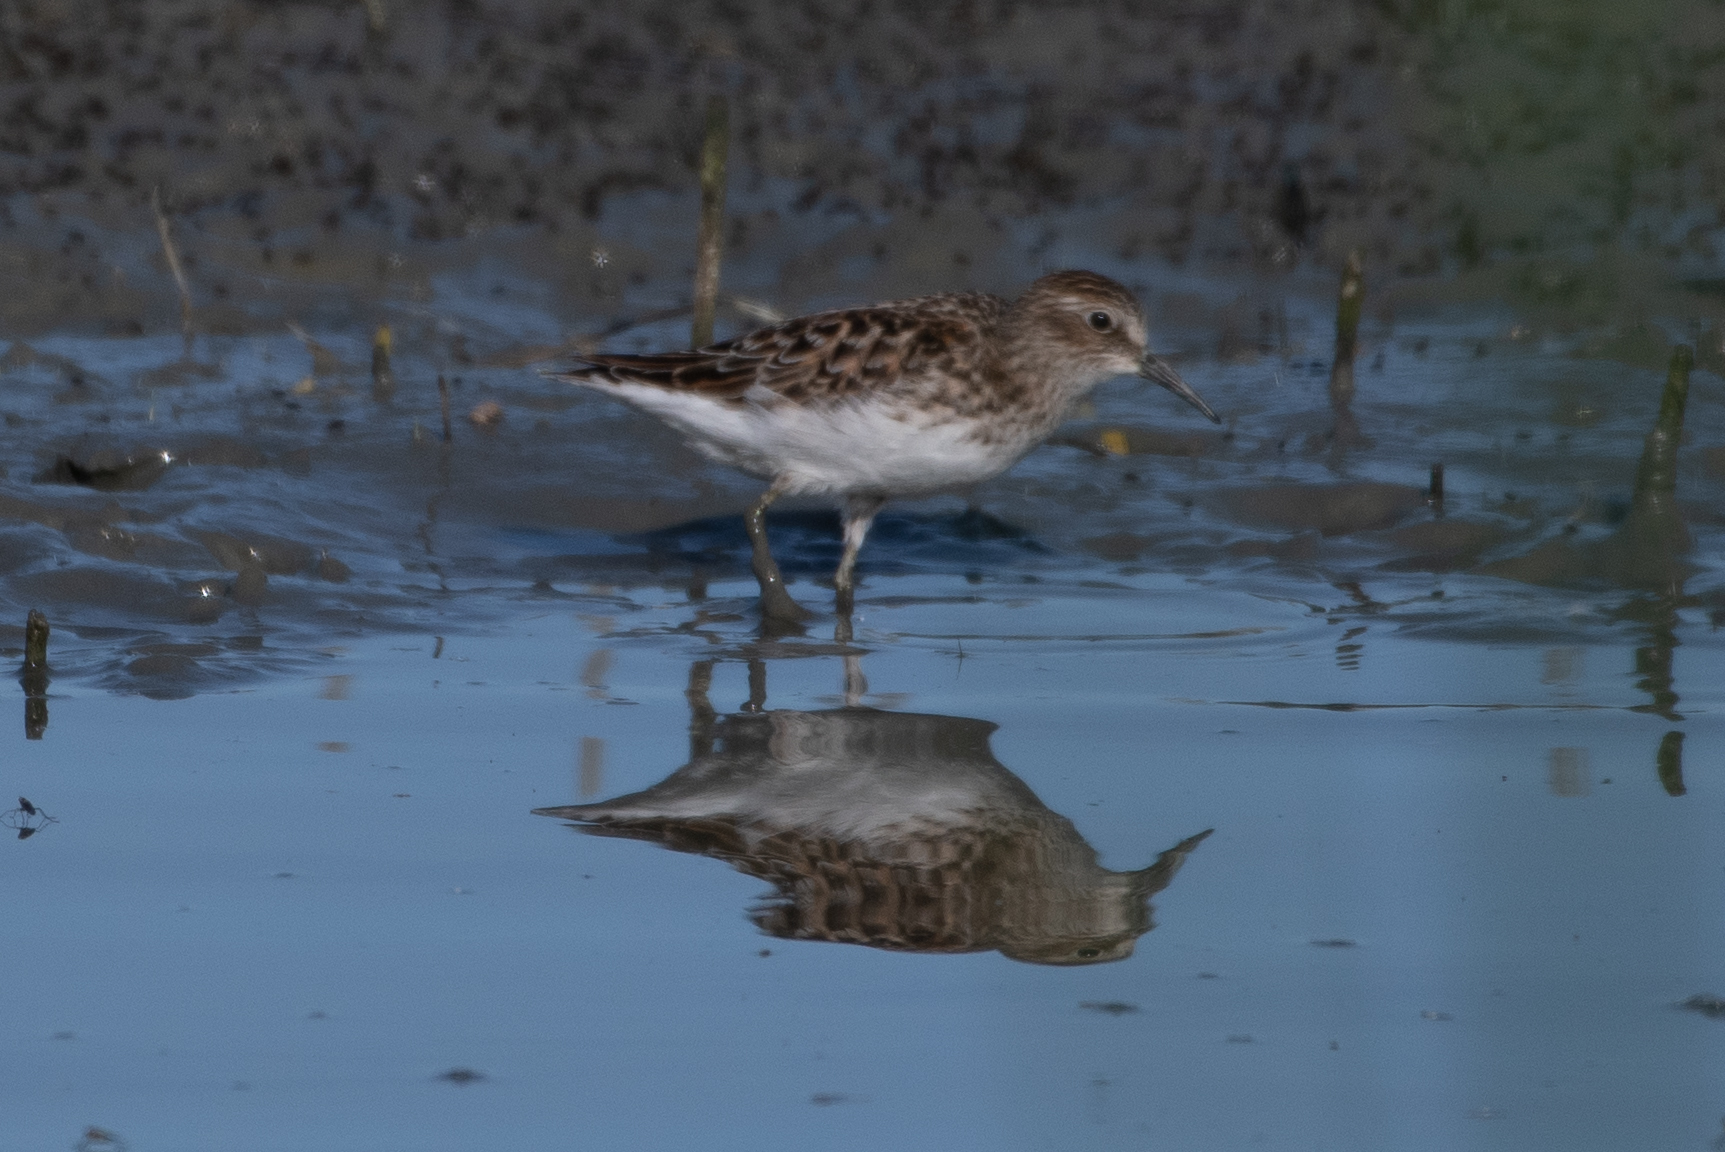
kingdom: Animalia
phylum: Chordata
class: Aves
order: Charadriiformes
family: Scolopacidae
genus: Calidris
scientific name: Calidris minutilla
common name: Least sandpiper
